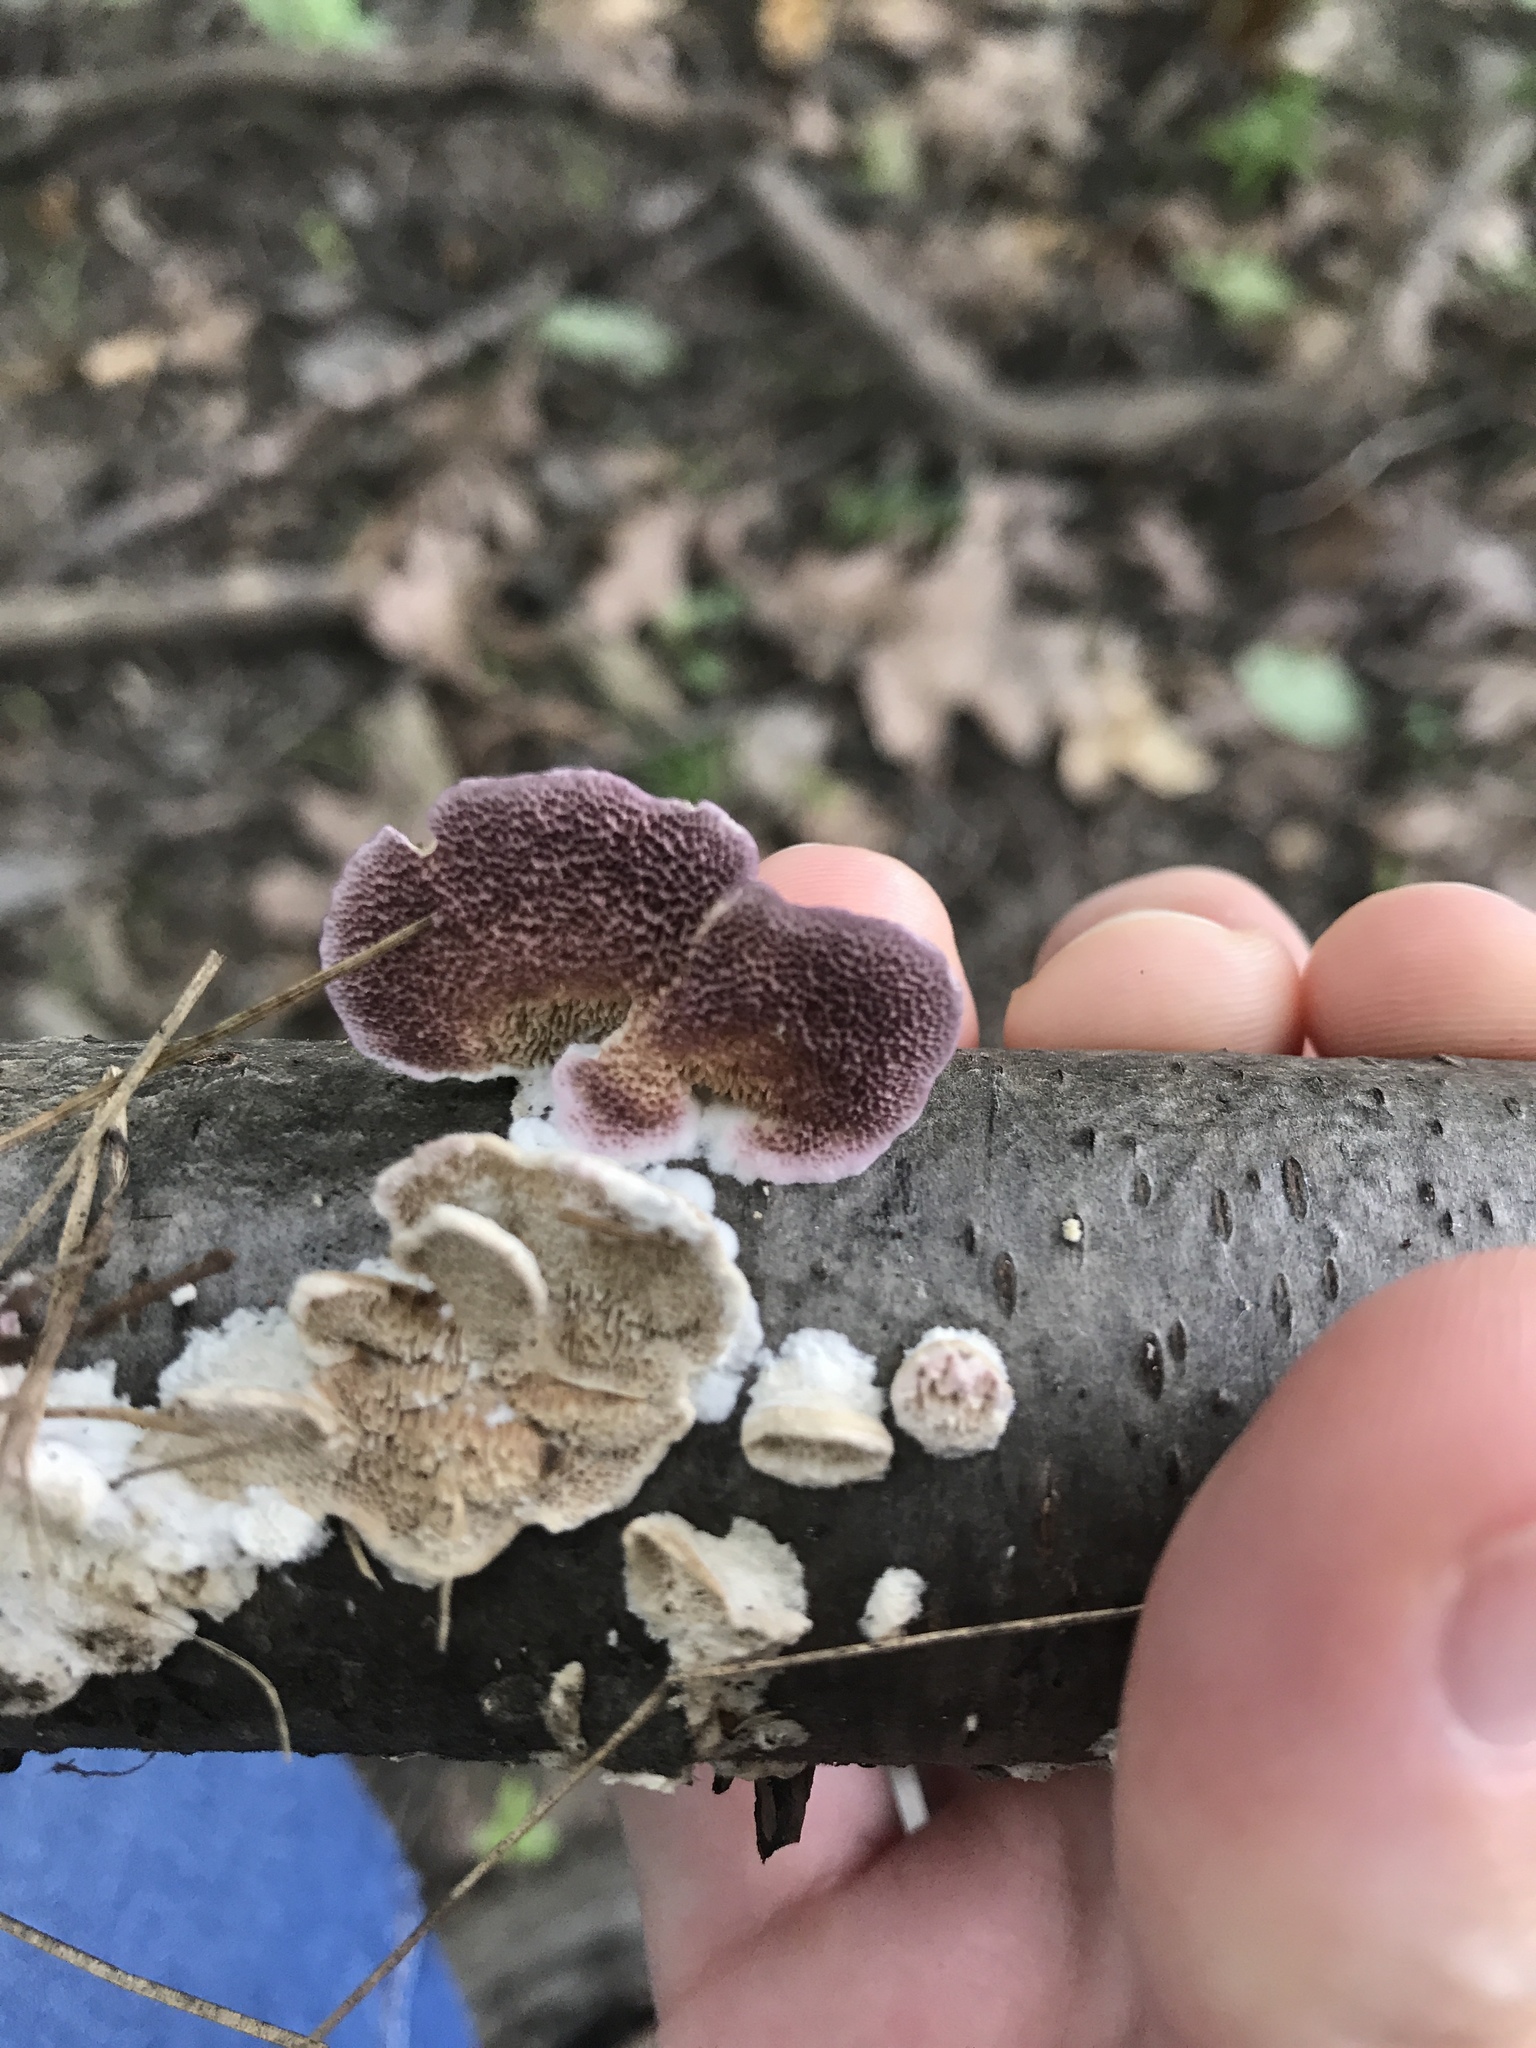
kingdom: Fungi
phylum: Basidiomycota
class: Agaricomycetes
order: Hymenochaetales
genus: Trichaptum
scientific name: Trichaptum biforme
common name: Violet-toothed polypore
